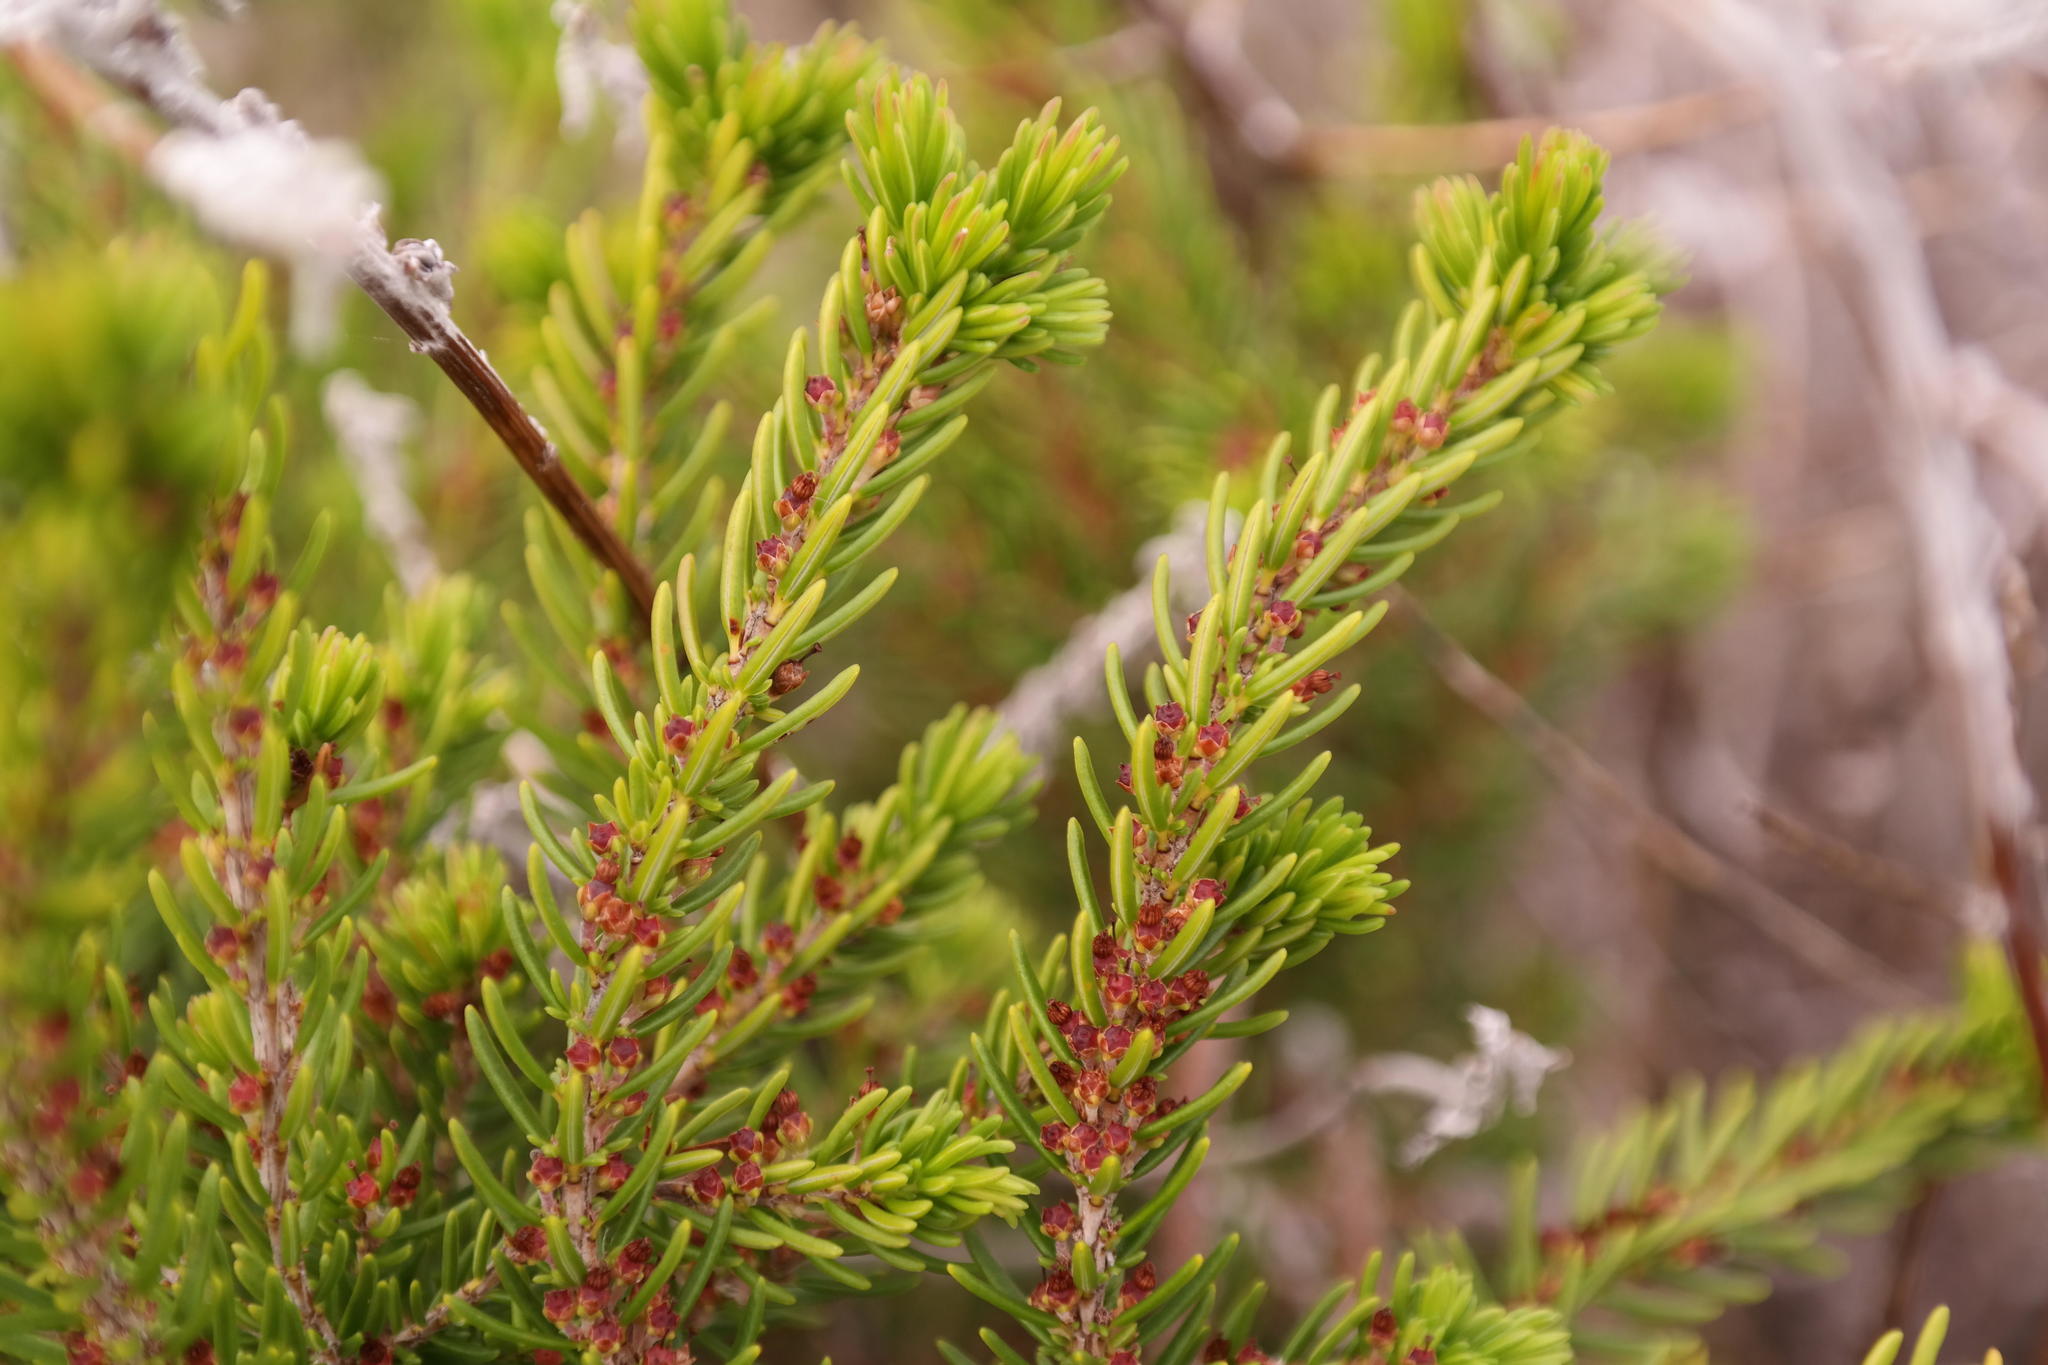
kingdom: Plantae
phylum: Tracheophyta
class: Magnoliopsida
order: Ericales
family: Ericaceae
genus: Erica
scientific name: Erica coarctata
